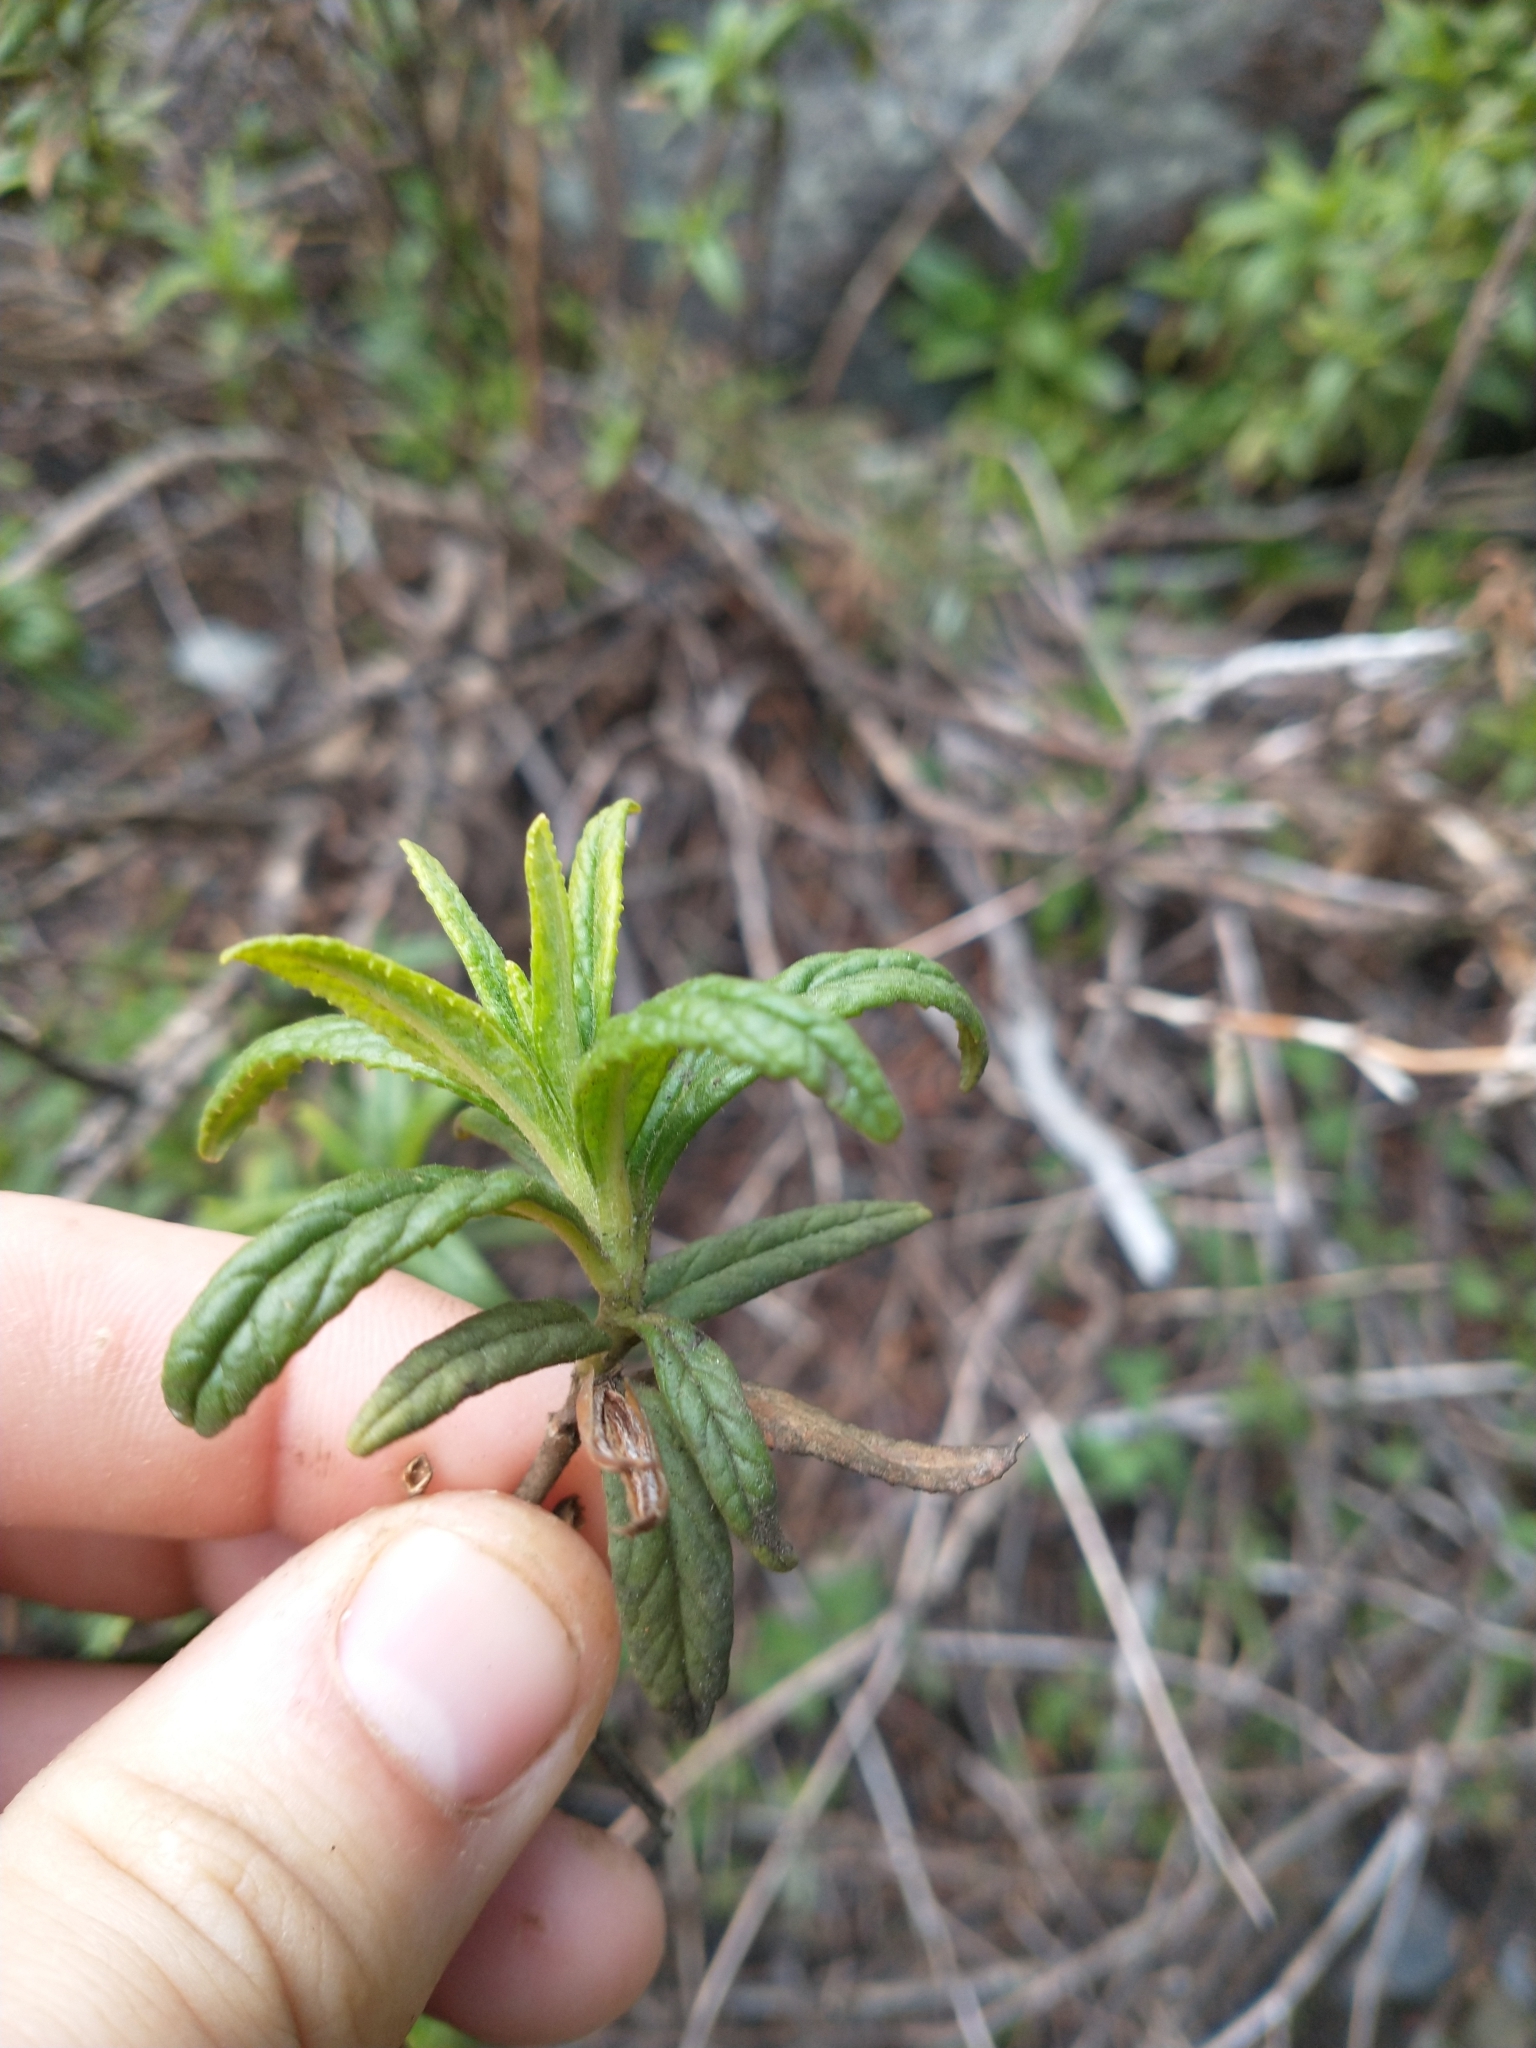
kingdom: Plantae
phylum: Tracheophyta
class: Magnoliopsida
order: Lamiales
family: Phrymaceae
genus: Diplacus
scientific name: Diplacus aurantiacus
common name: Bush monkey-flower
